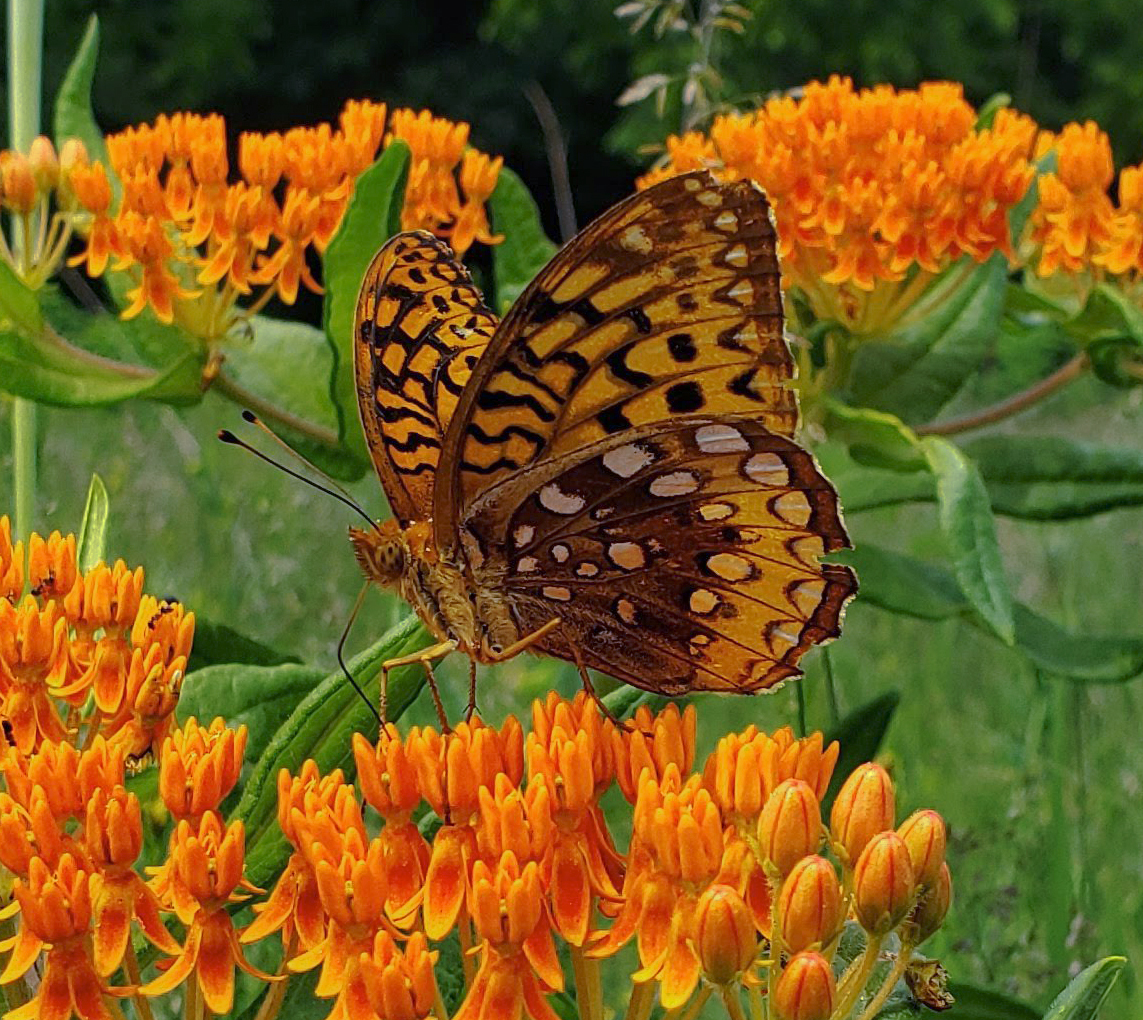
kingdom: Animalia
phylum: Arthropoda
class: Insecta
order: Lepidoptera
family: Nymphalidae
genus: Speyeria
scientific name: Speyeria cybele
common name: Great spangled fritillary
